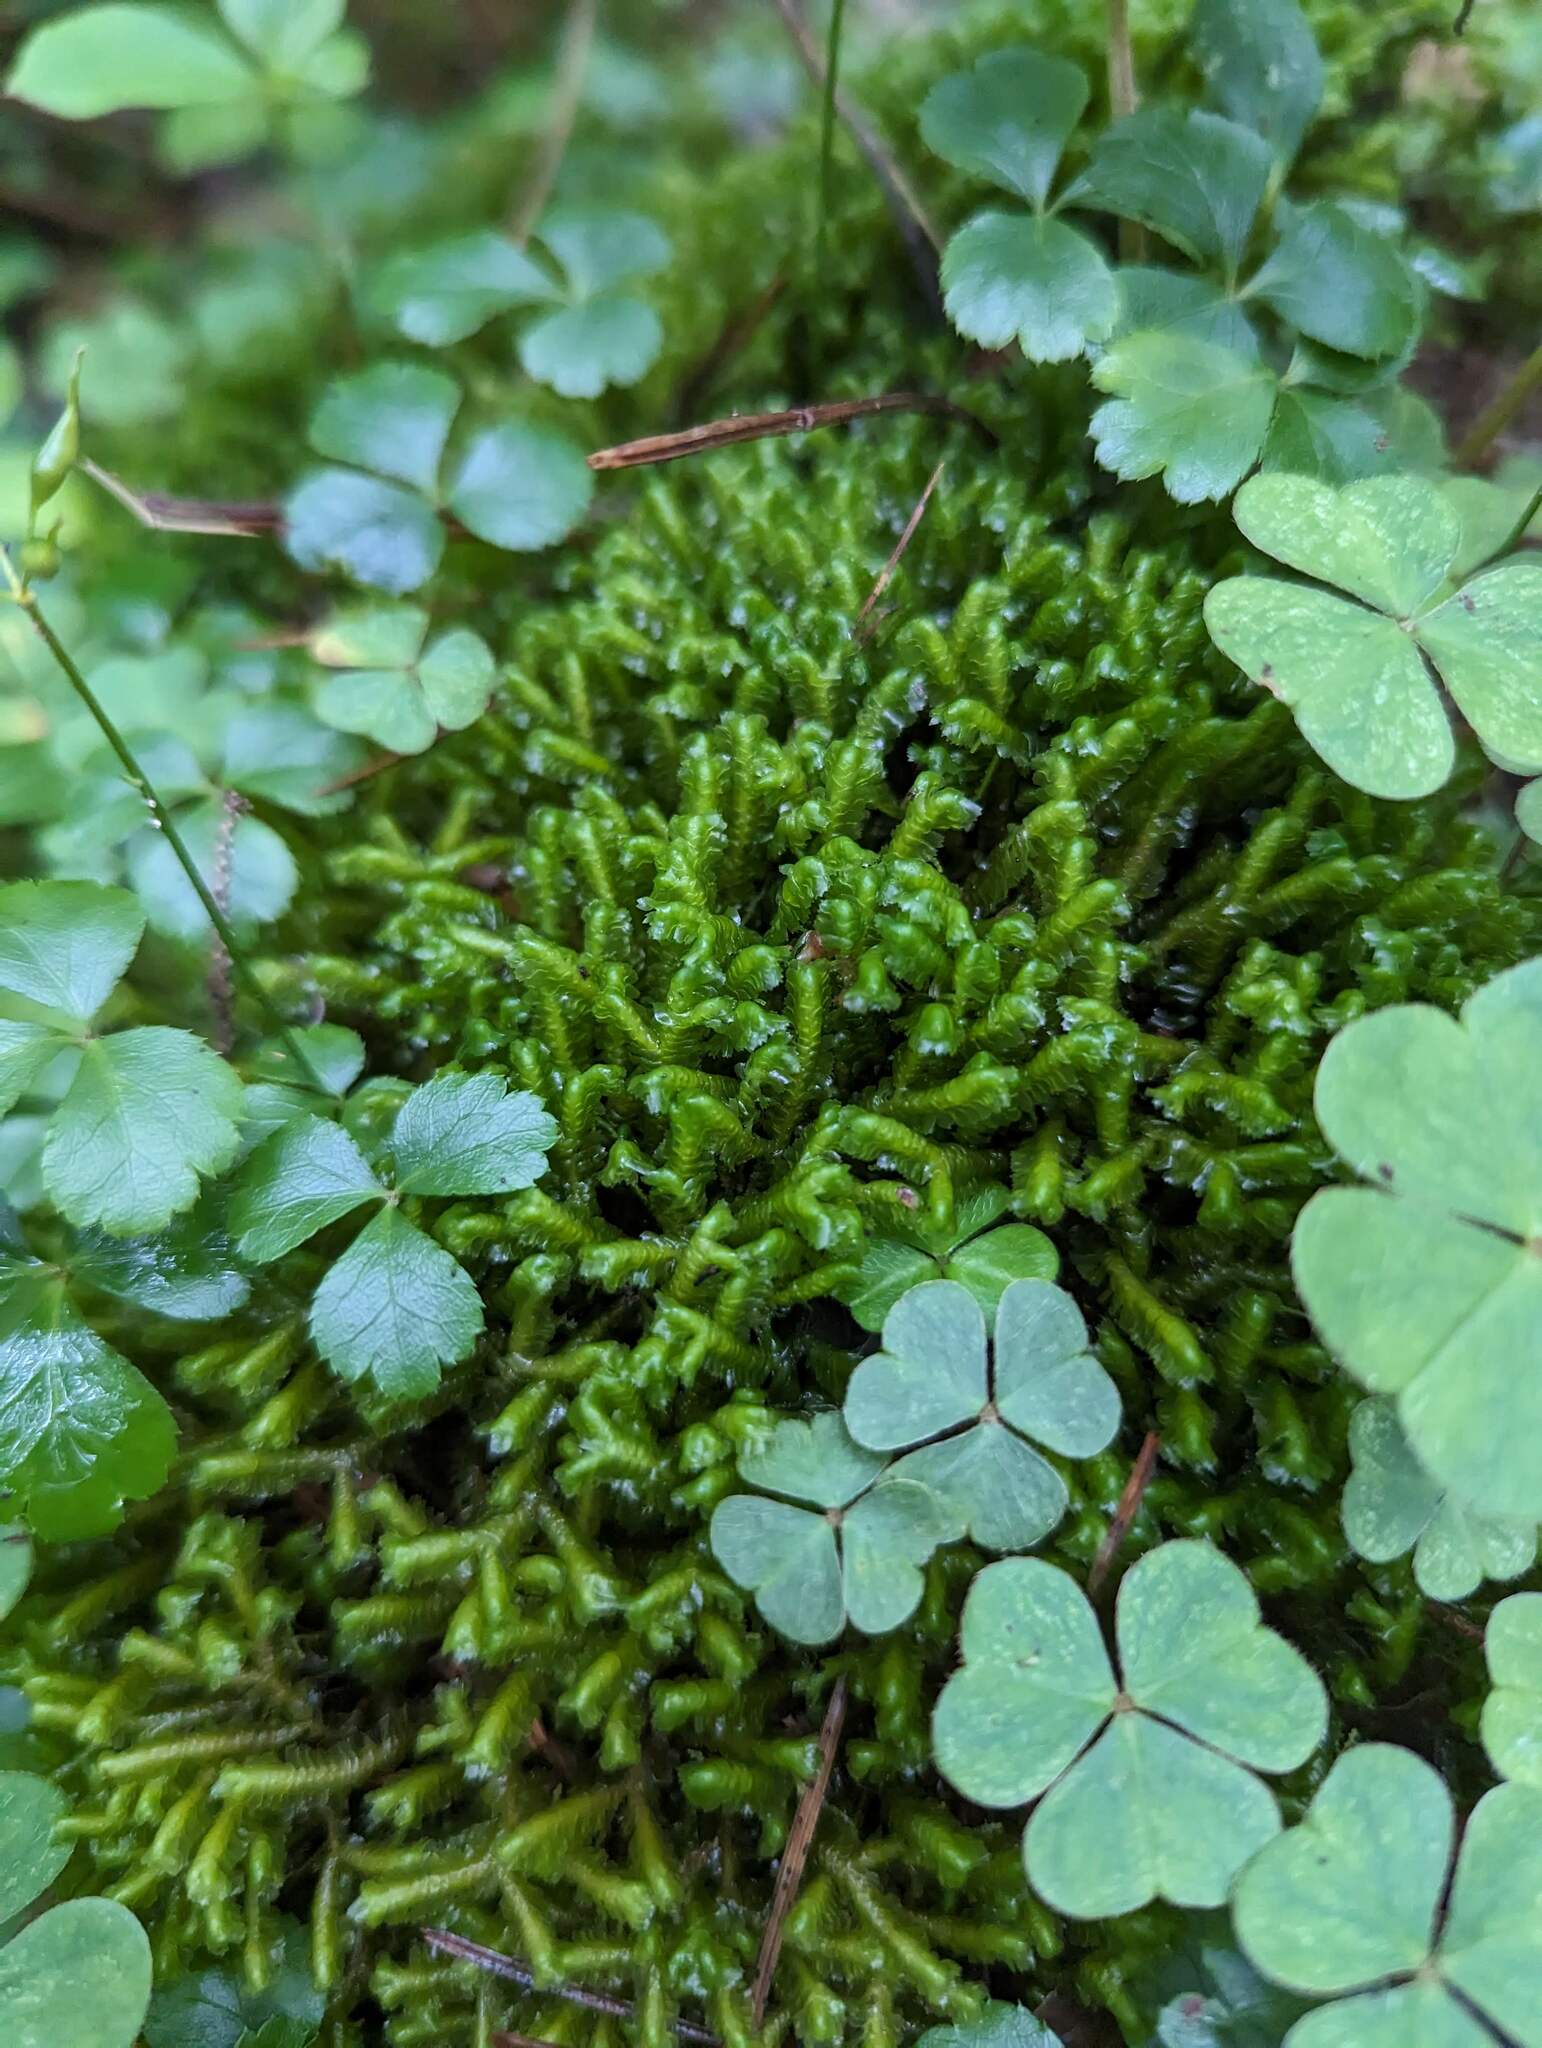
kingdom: Plantae
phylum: Marchantiophyta
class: Jungermanniopsida
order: Jungermanniales
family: Lepidoziaceae
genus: Bazzania
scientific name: Bazzania trilobata
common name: Three-lobed whipwort
